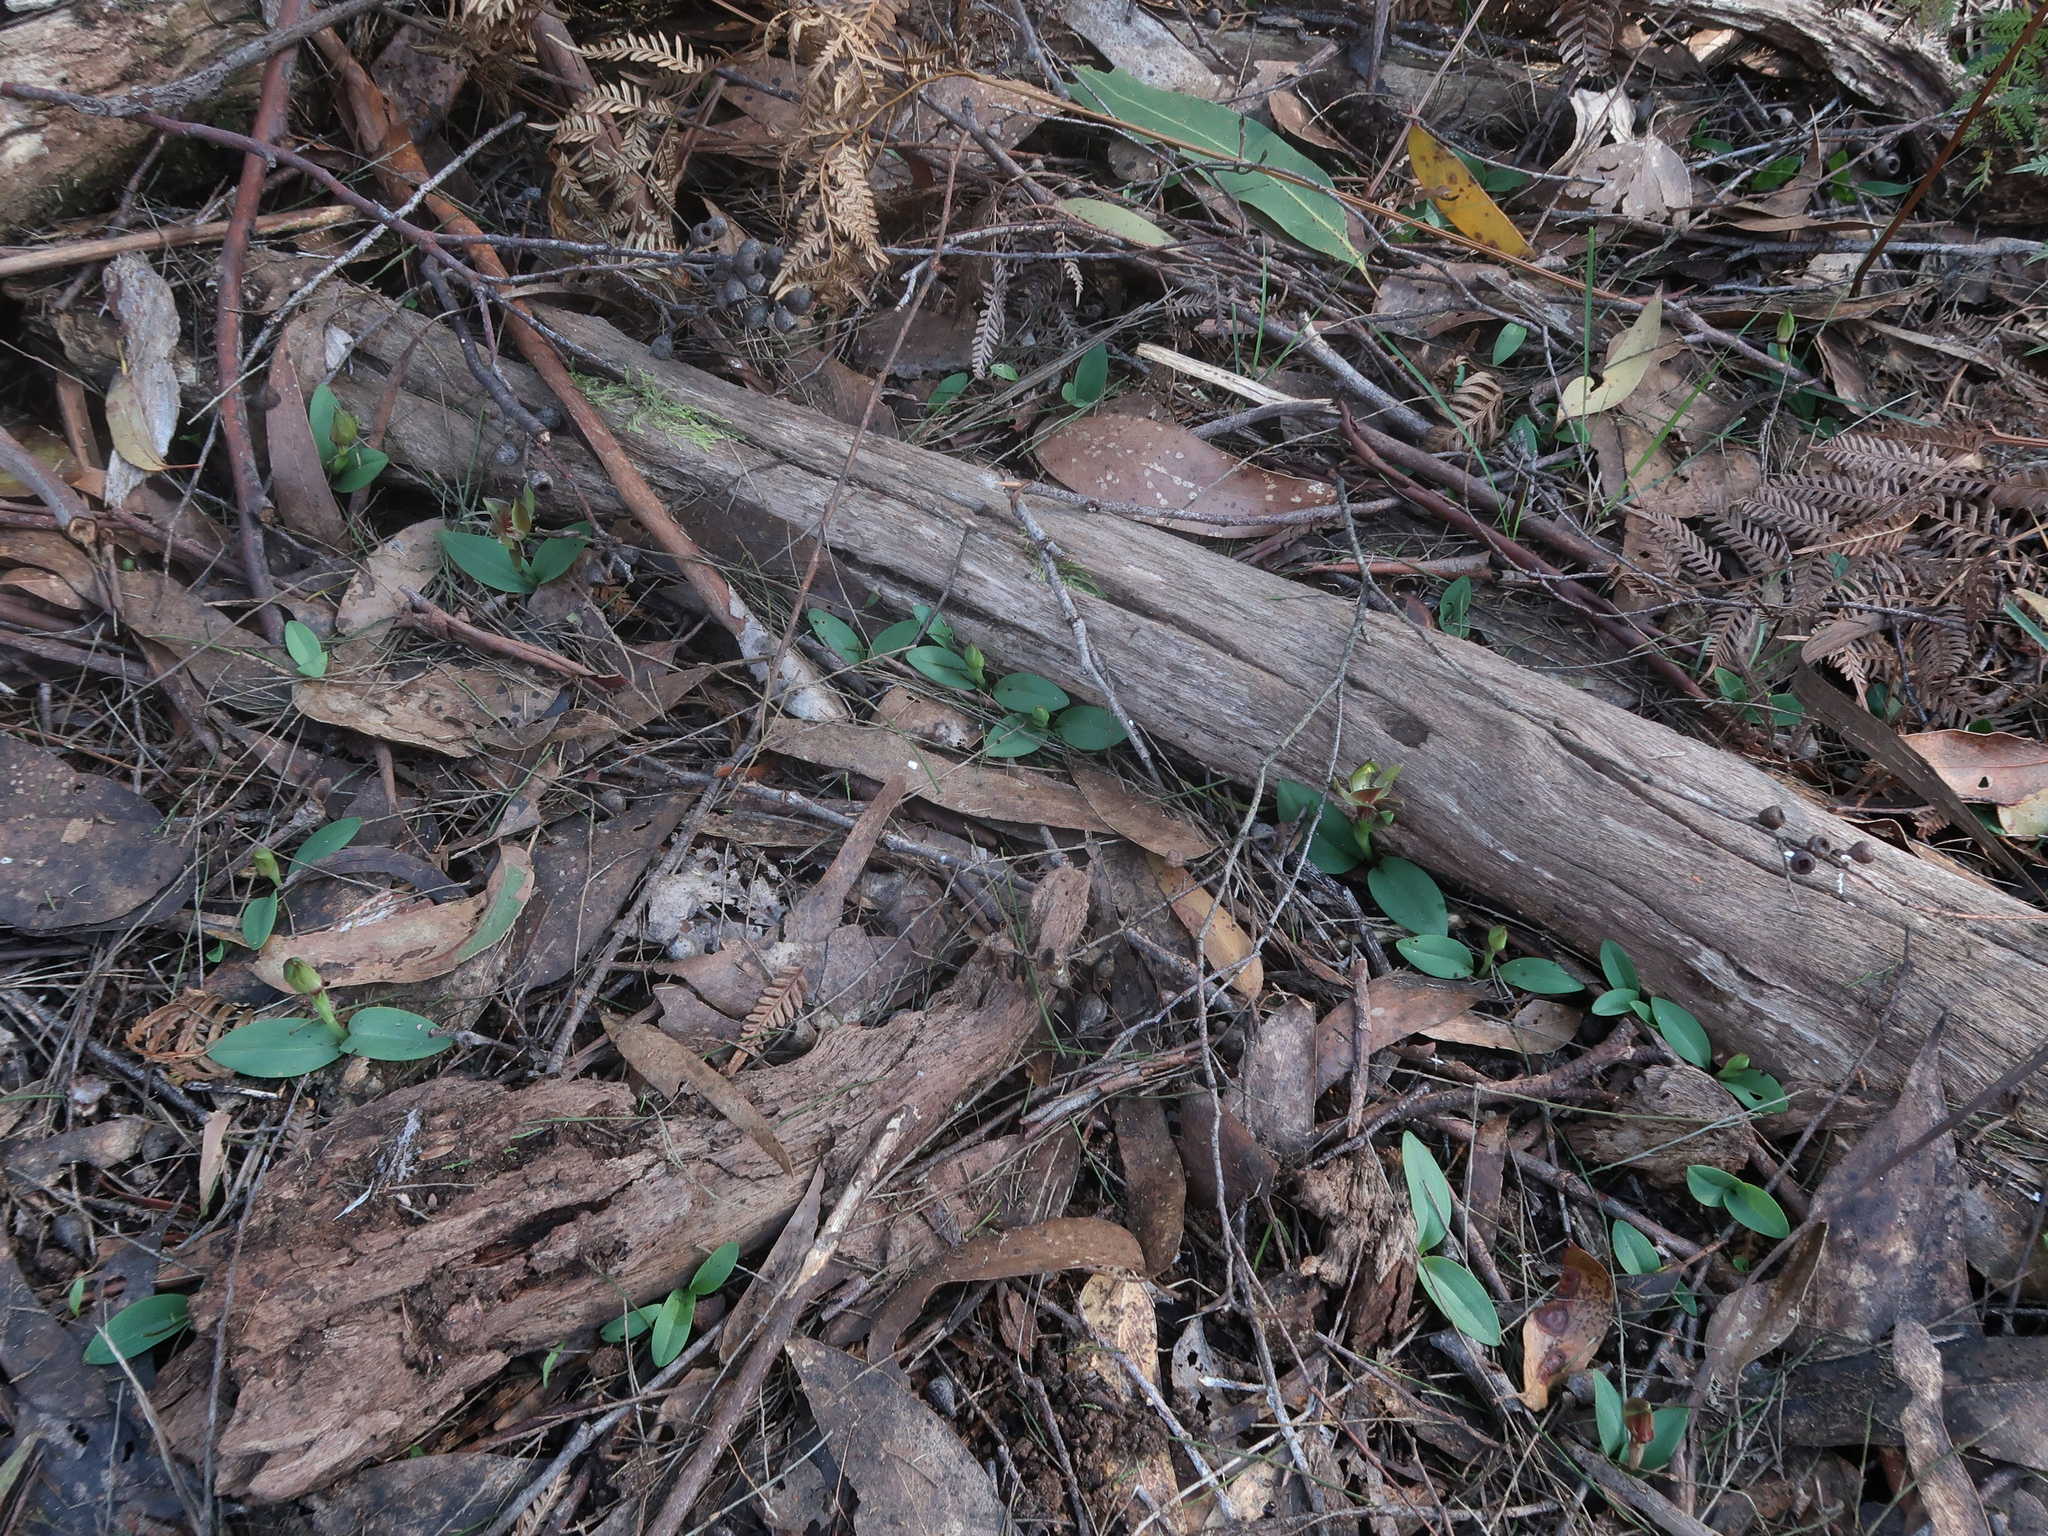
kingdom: Plantae
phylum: Tracheophyta
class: Liliopsida
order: Asparagales
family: Orchidaceae
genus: Chiloglottis
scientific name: Chiloglottis triceratops
